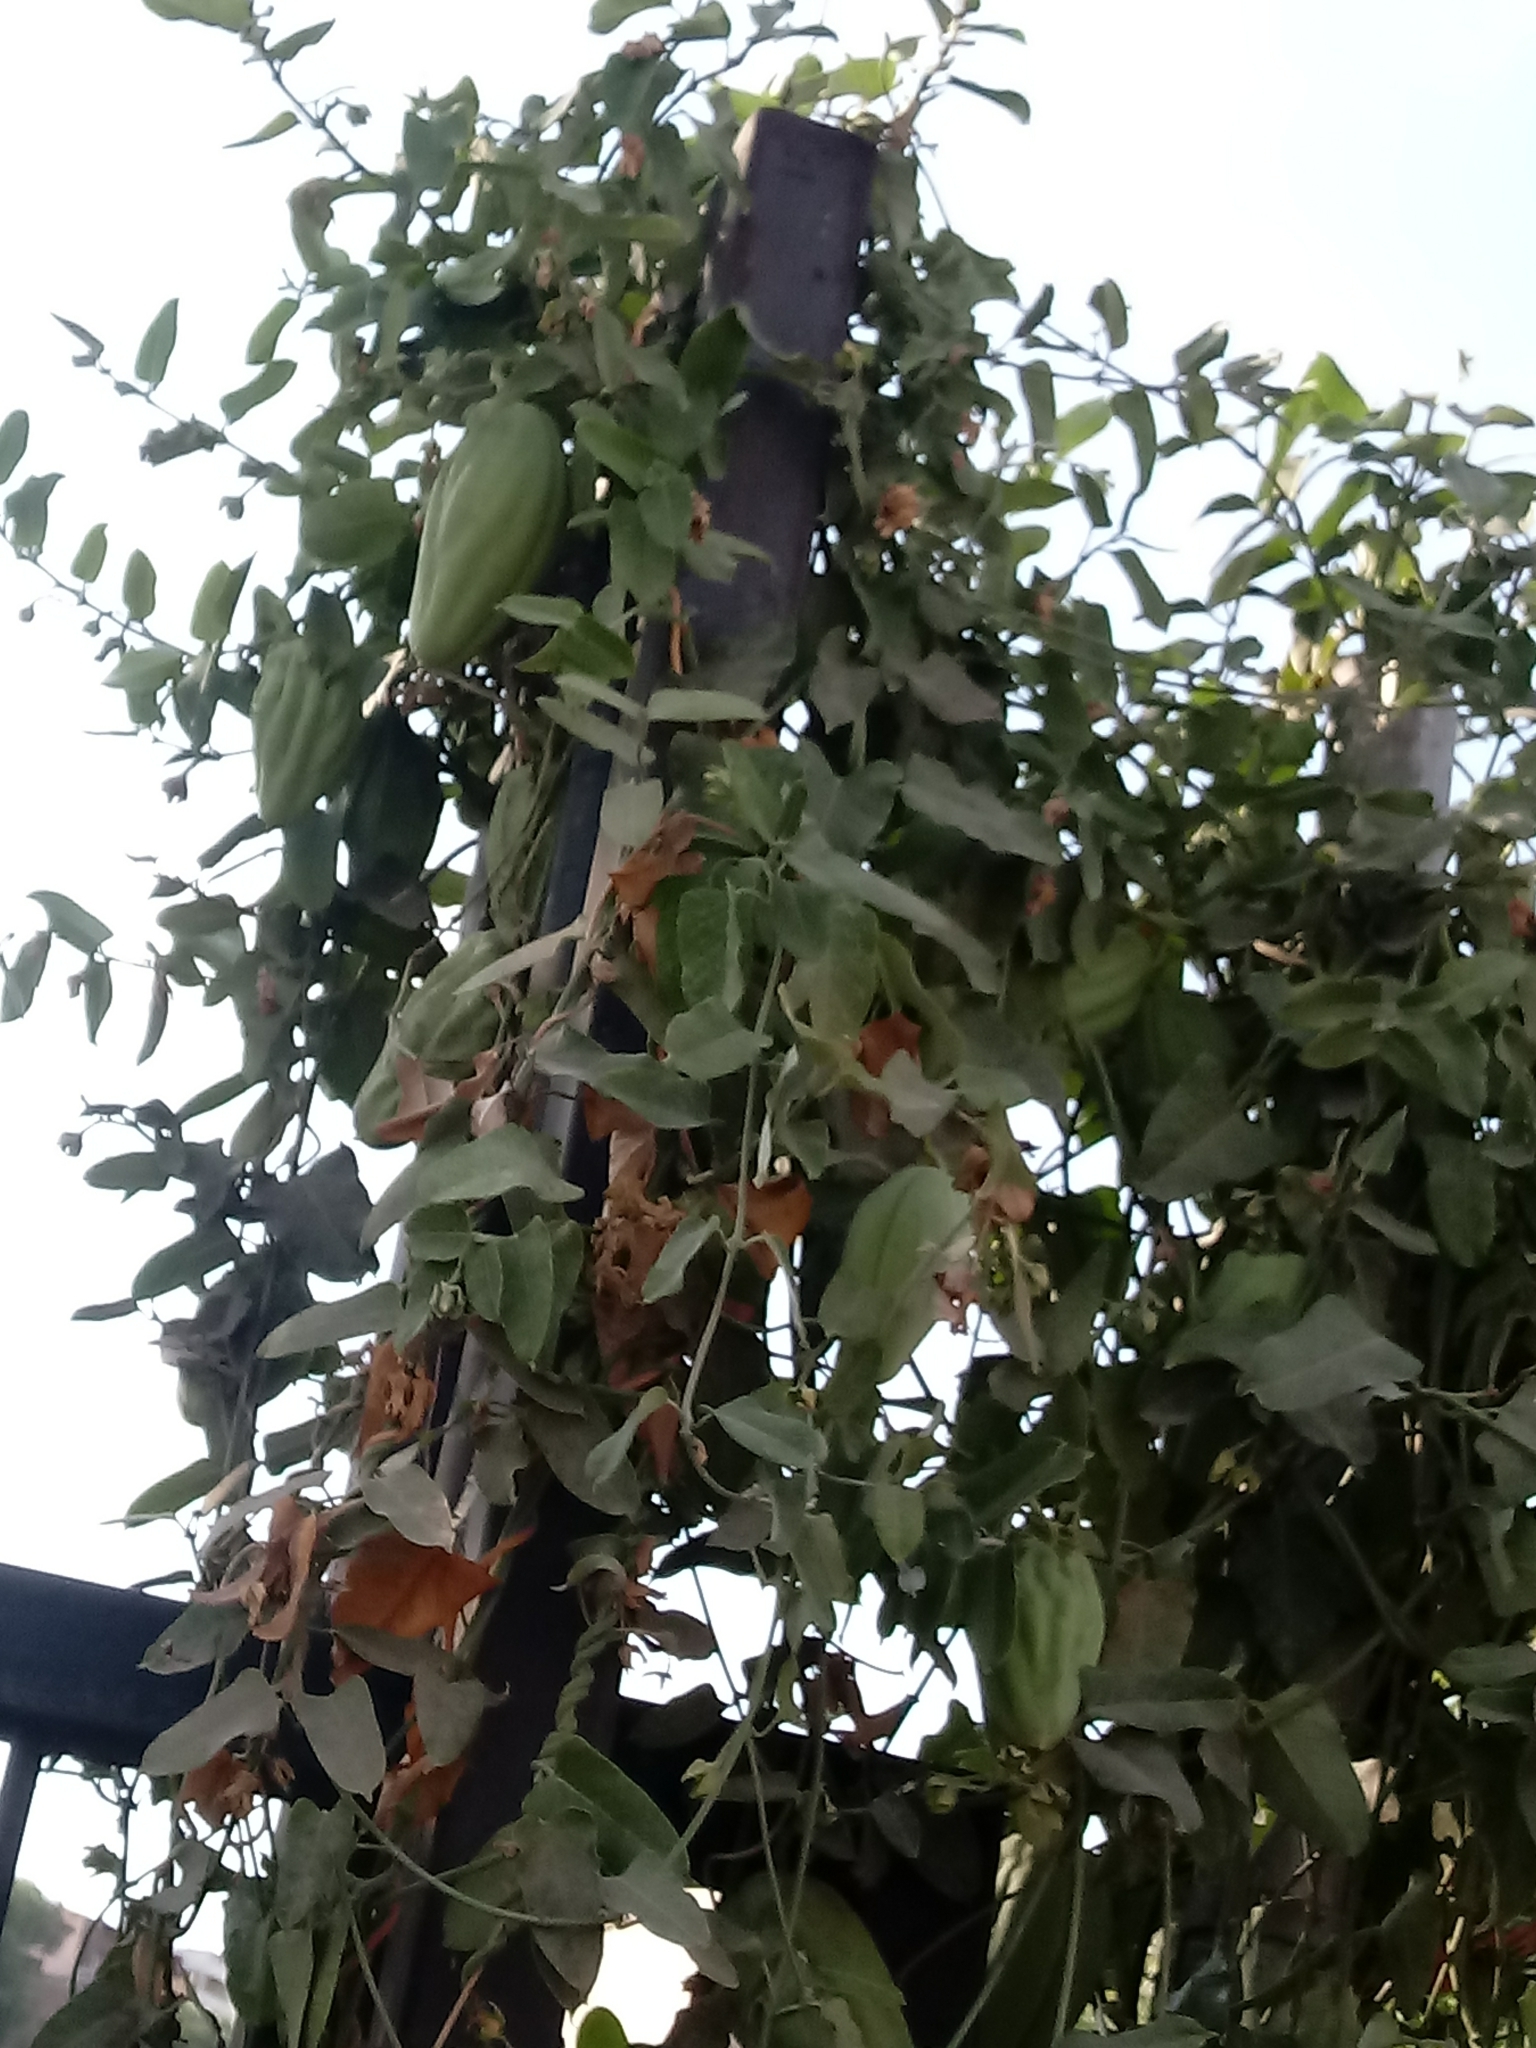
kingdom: Plantae
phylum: Tracheophyta
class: Magnoliopsida
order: Gentianales
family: Apocynaceae
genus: Araujia
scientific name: Araujia sericifera
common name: White bladderflower
